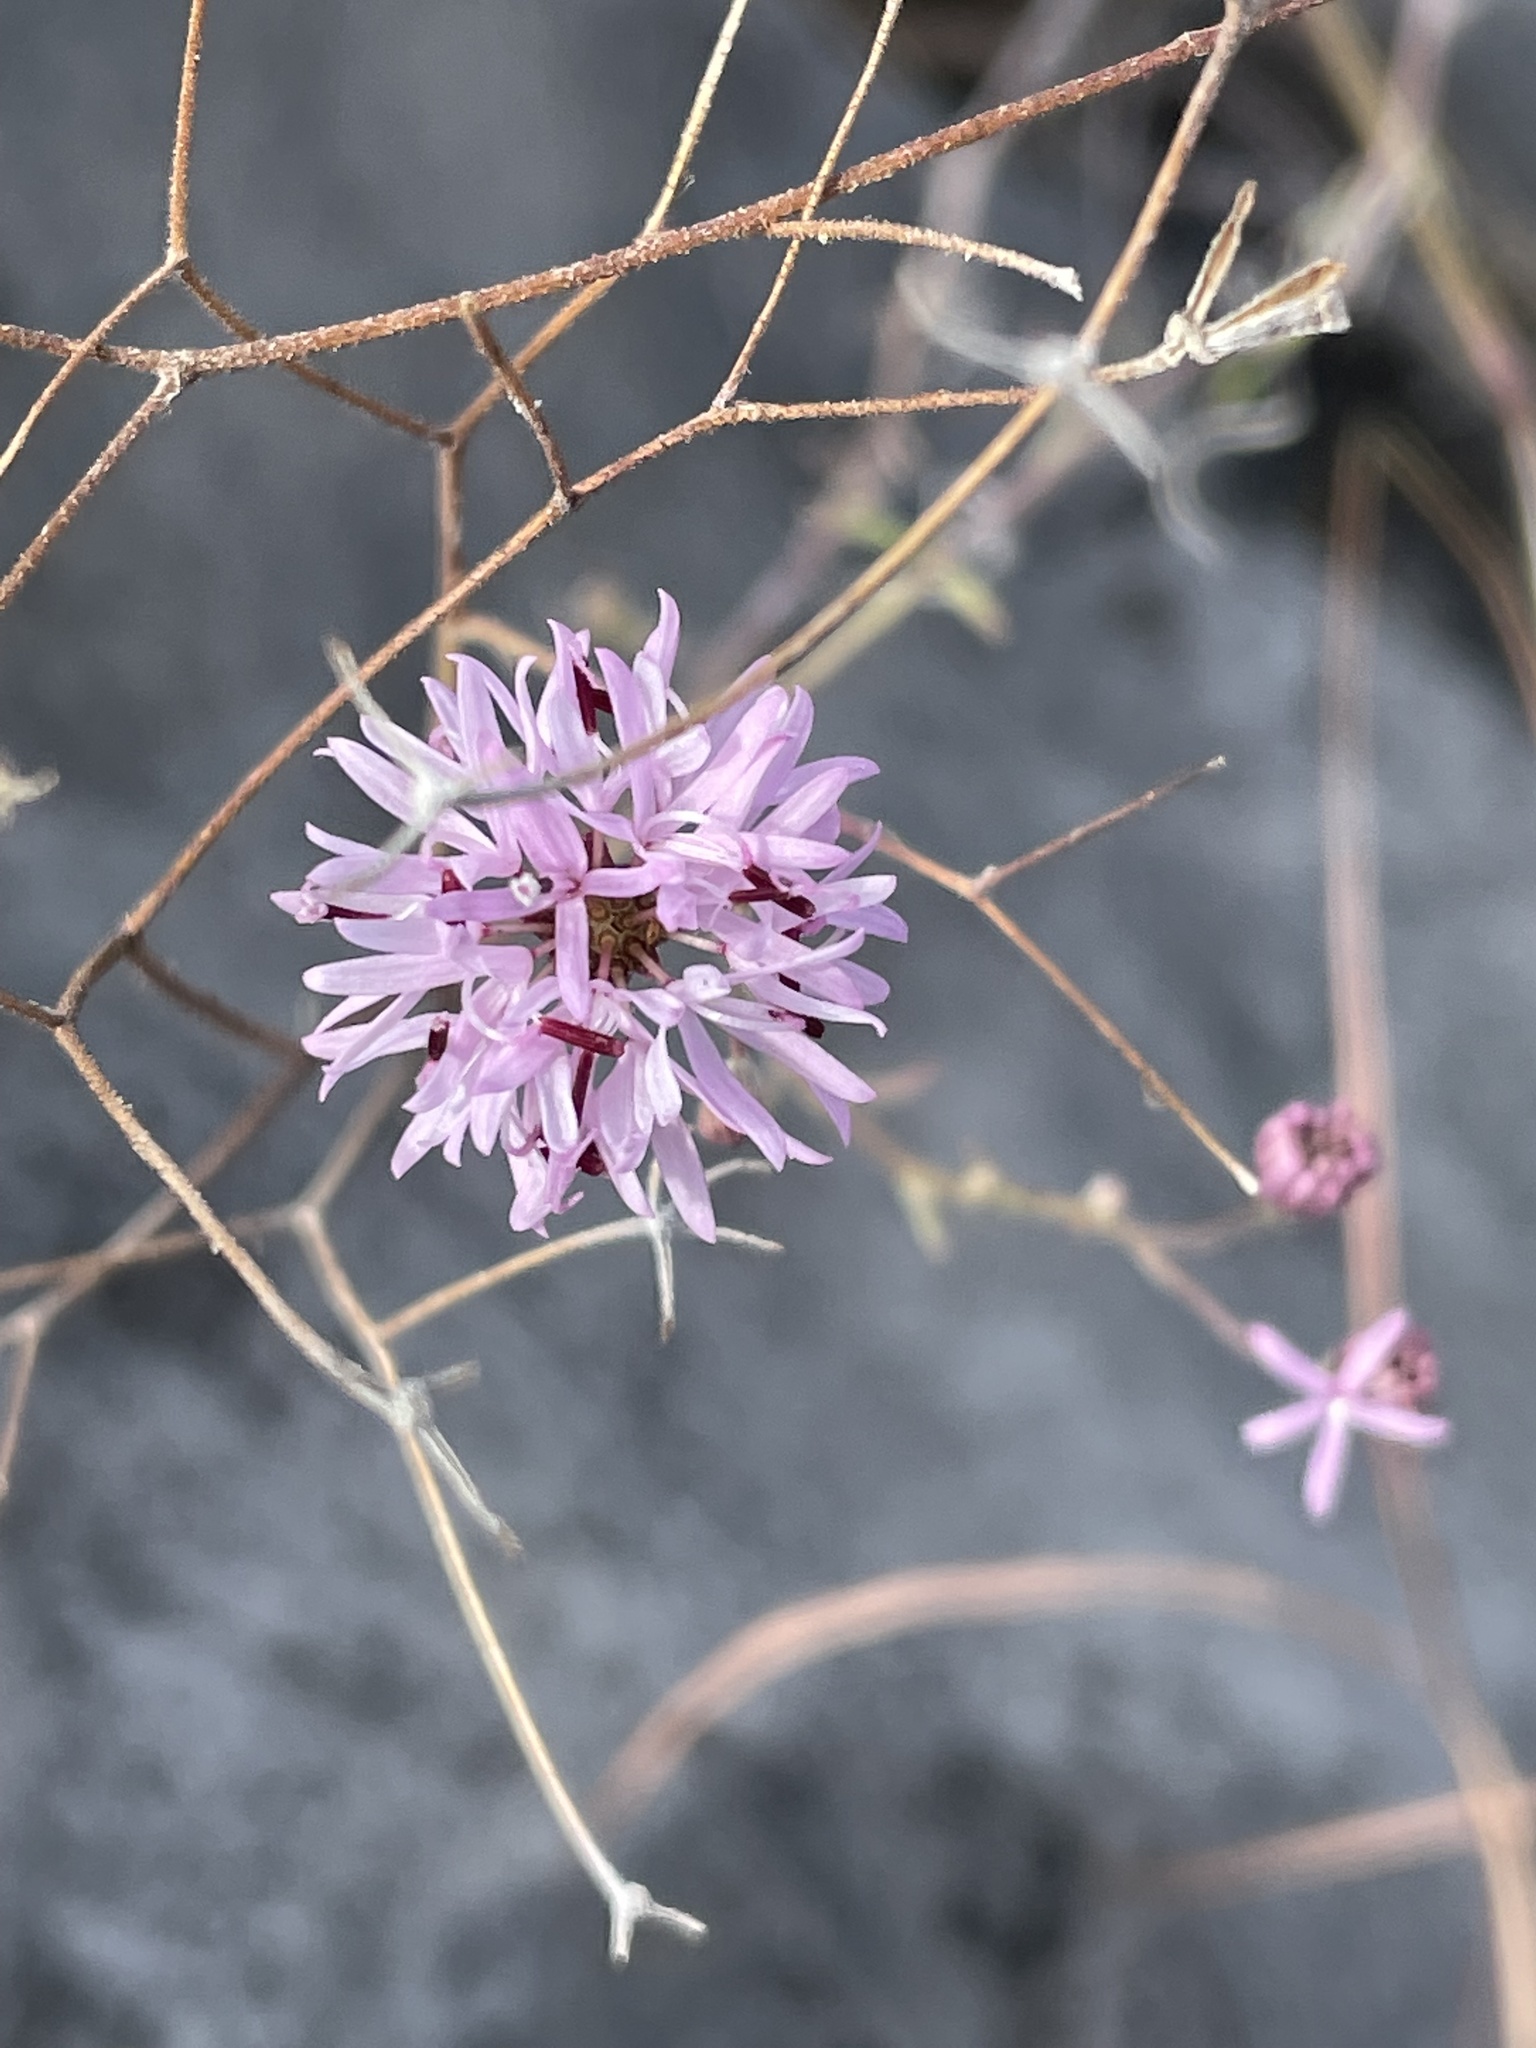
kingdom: Plantae
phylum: Tracheophyta
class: Magnoliopsida
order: Asterales
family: Asteraceae
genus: Palafoxia
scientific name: Palafoxia callosa
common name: Small palafox
